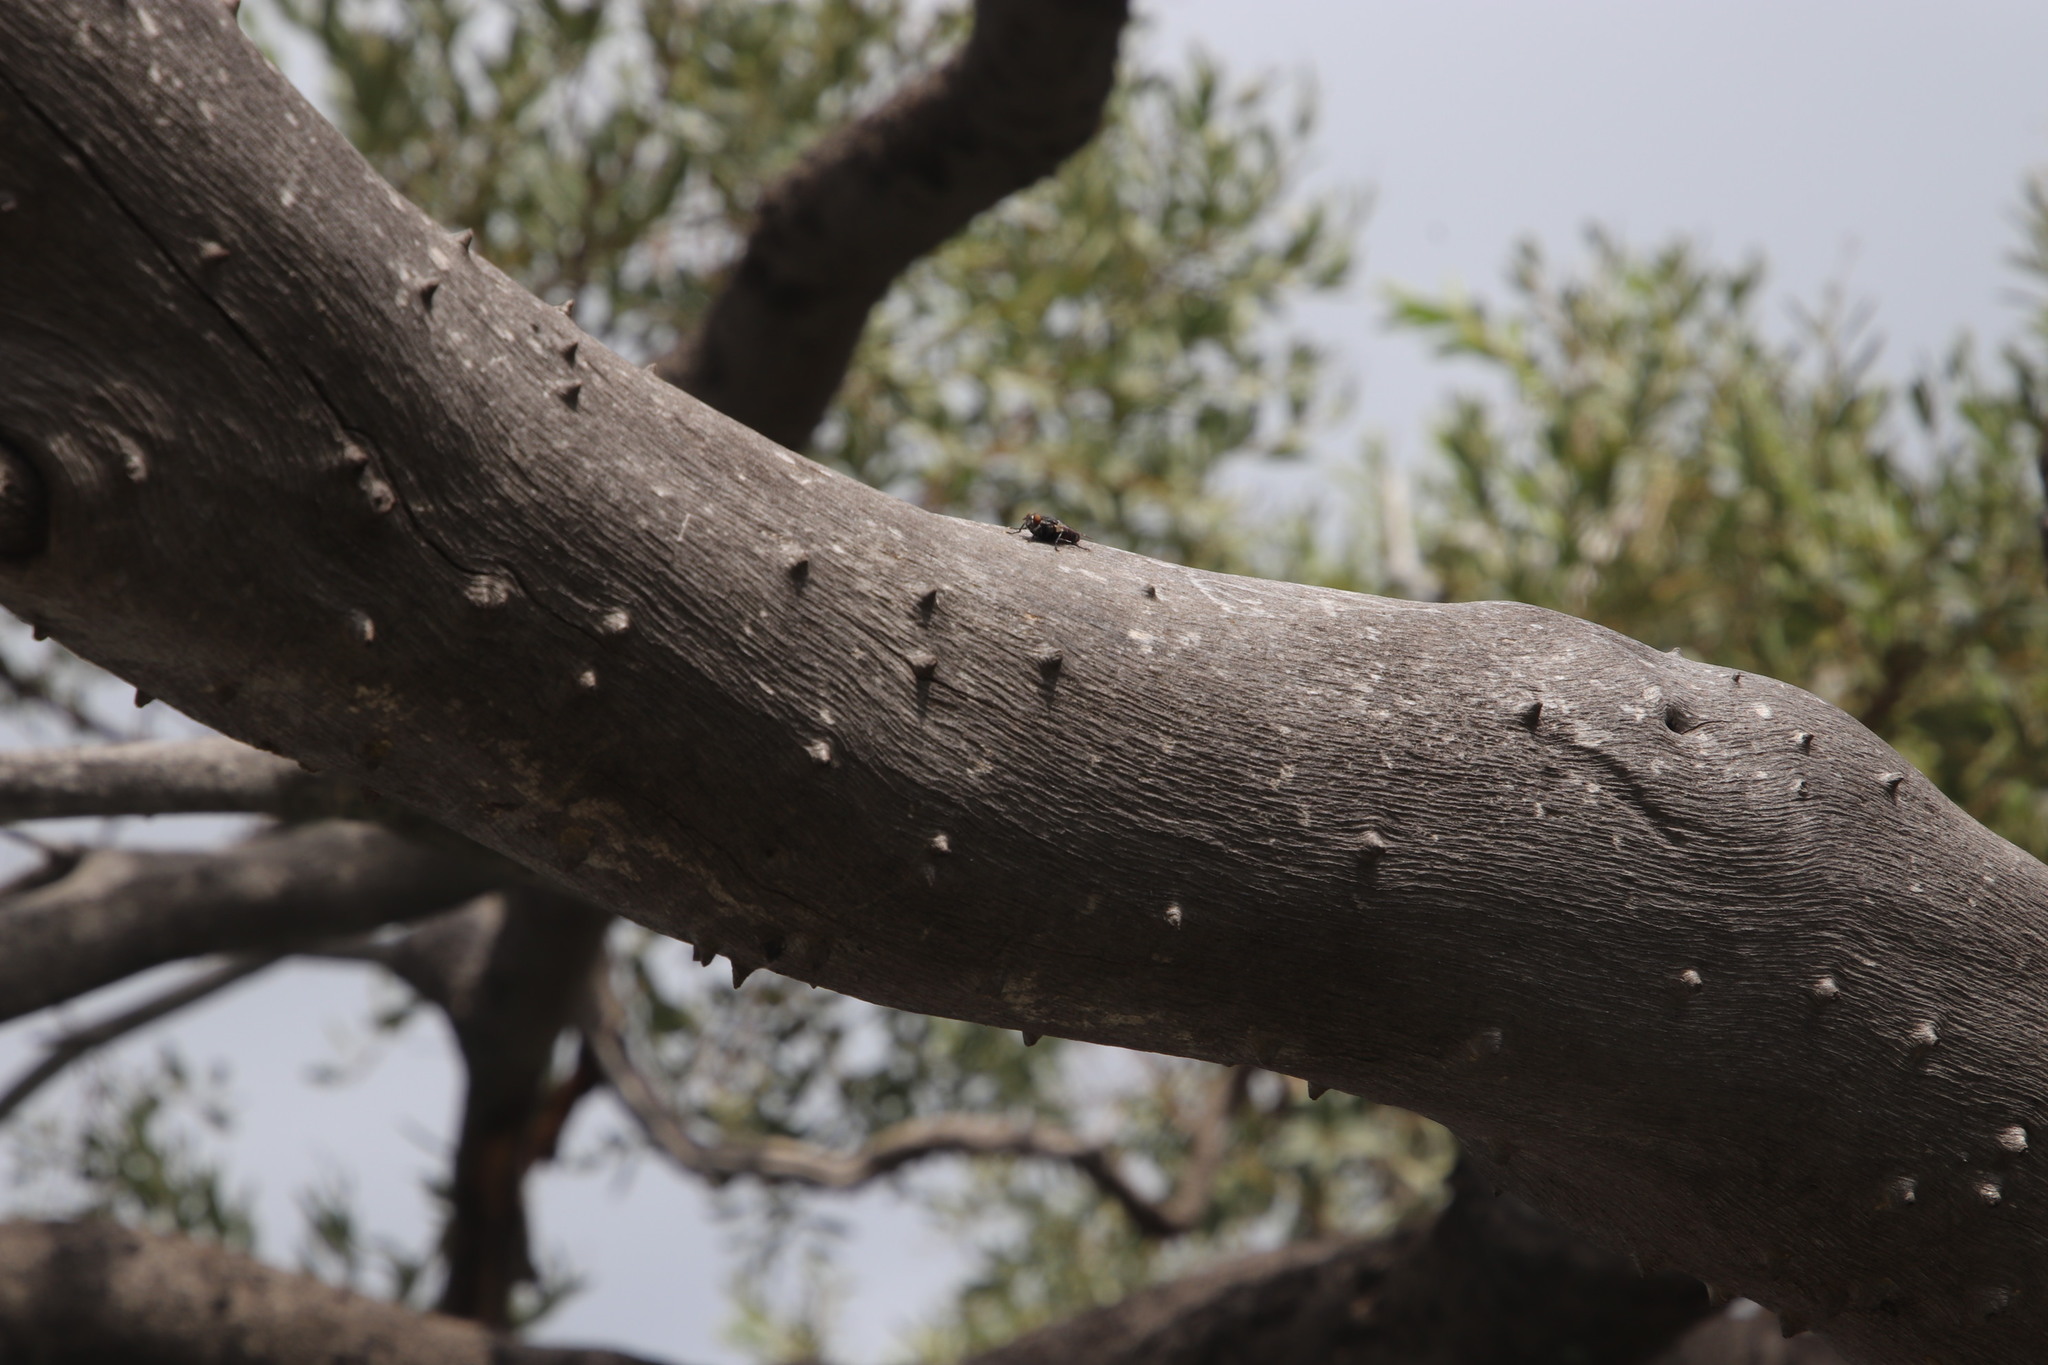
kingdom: Plantae
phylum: Tracheophyta
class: Magnoliopsida
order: Sapindales
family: Anacardiaceae
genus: Ozoroa
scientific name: Ozoroa paniculosa
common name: Bushveld ozoroa
